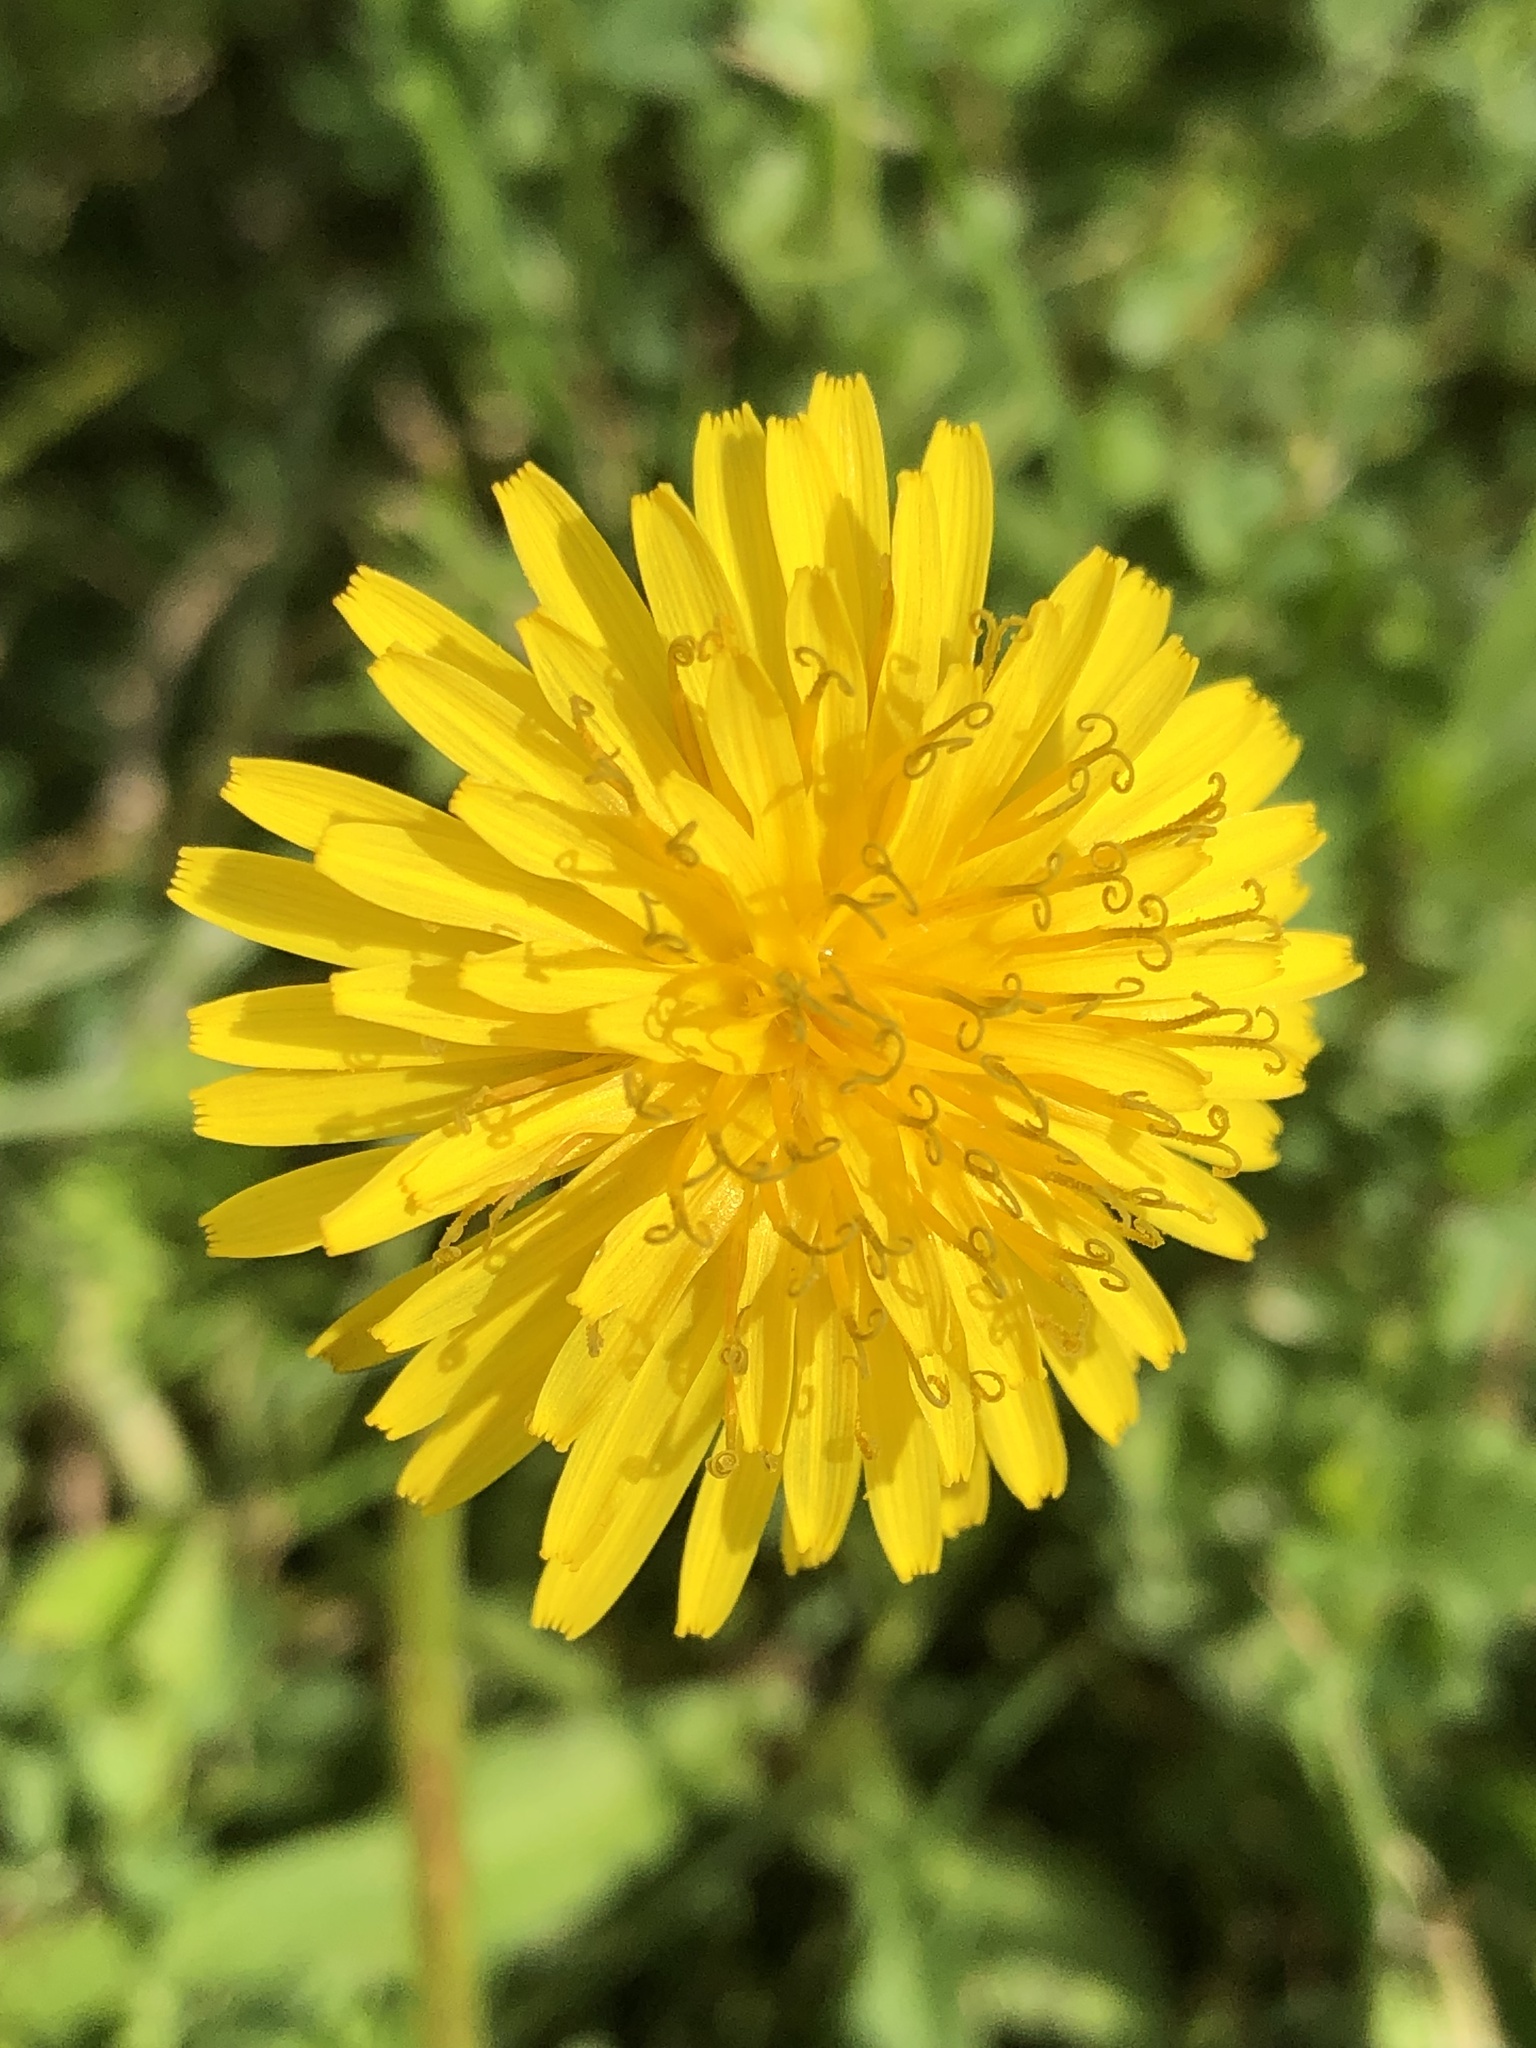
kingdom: Plantae
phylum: Tracheophyta
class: Magnoliopsida
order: Asterales
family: Asteraceae
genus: Taraxacum
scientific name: Taraxacum officinale
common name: Common dandelion
